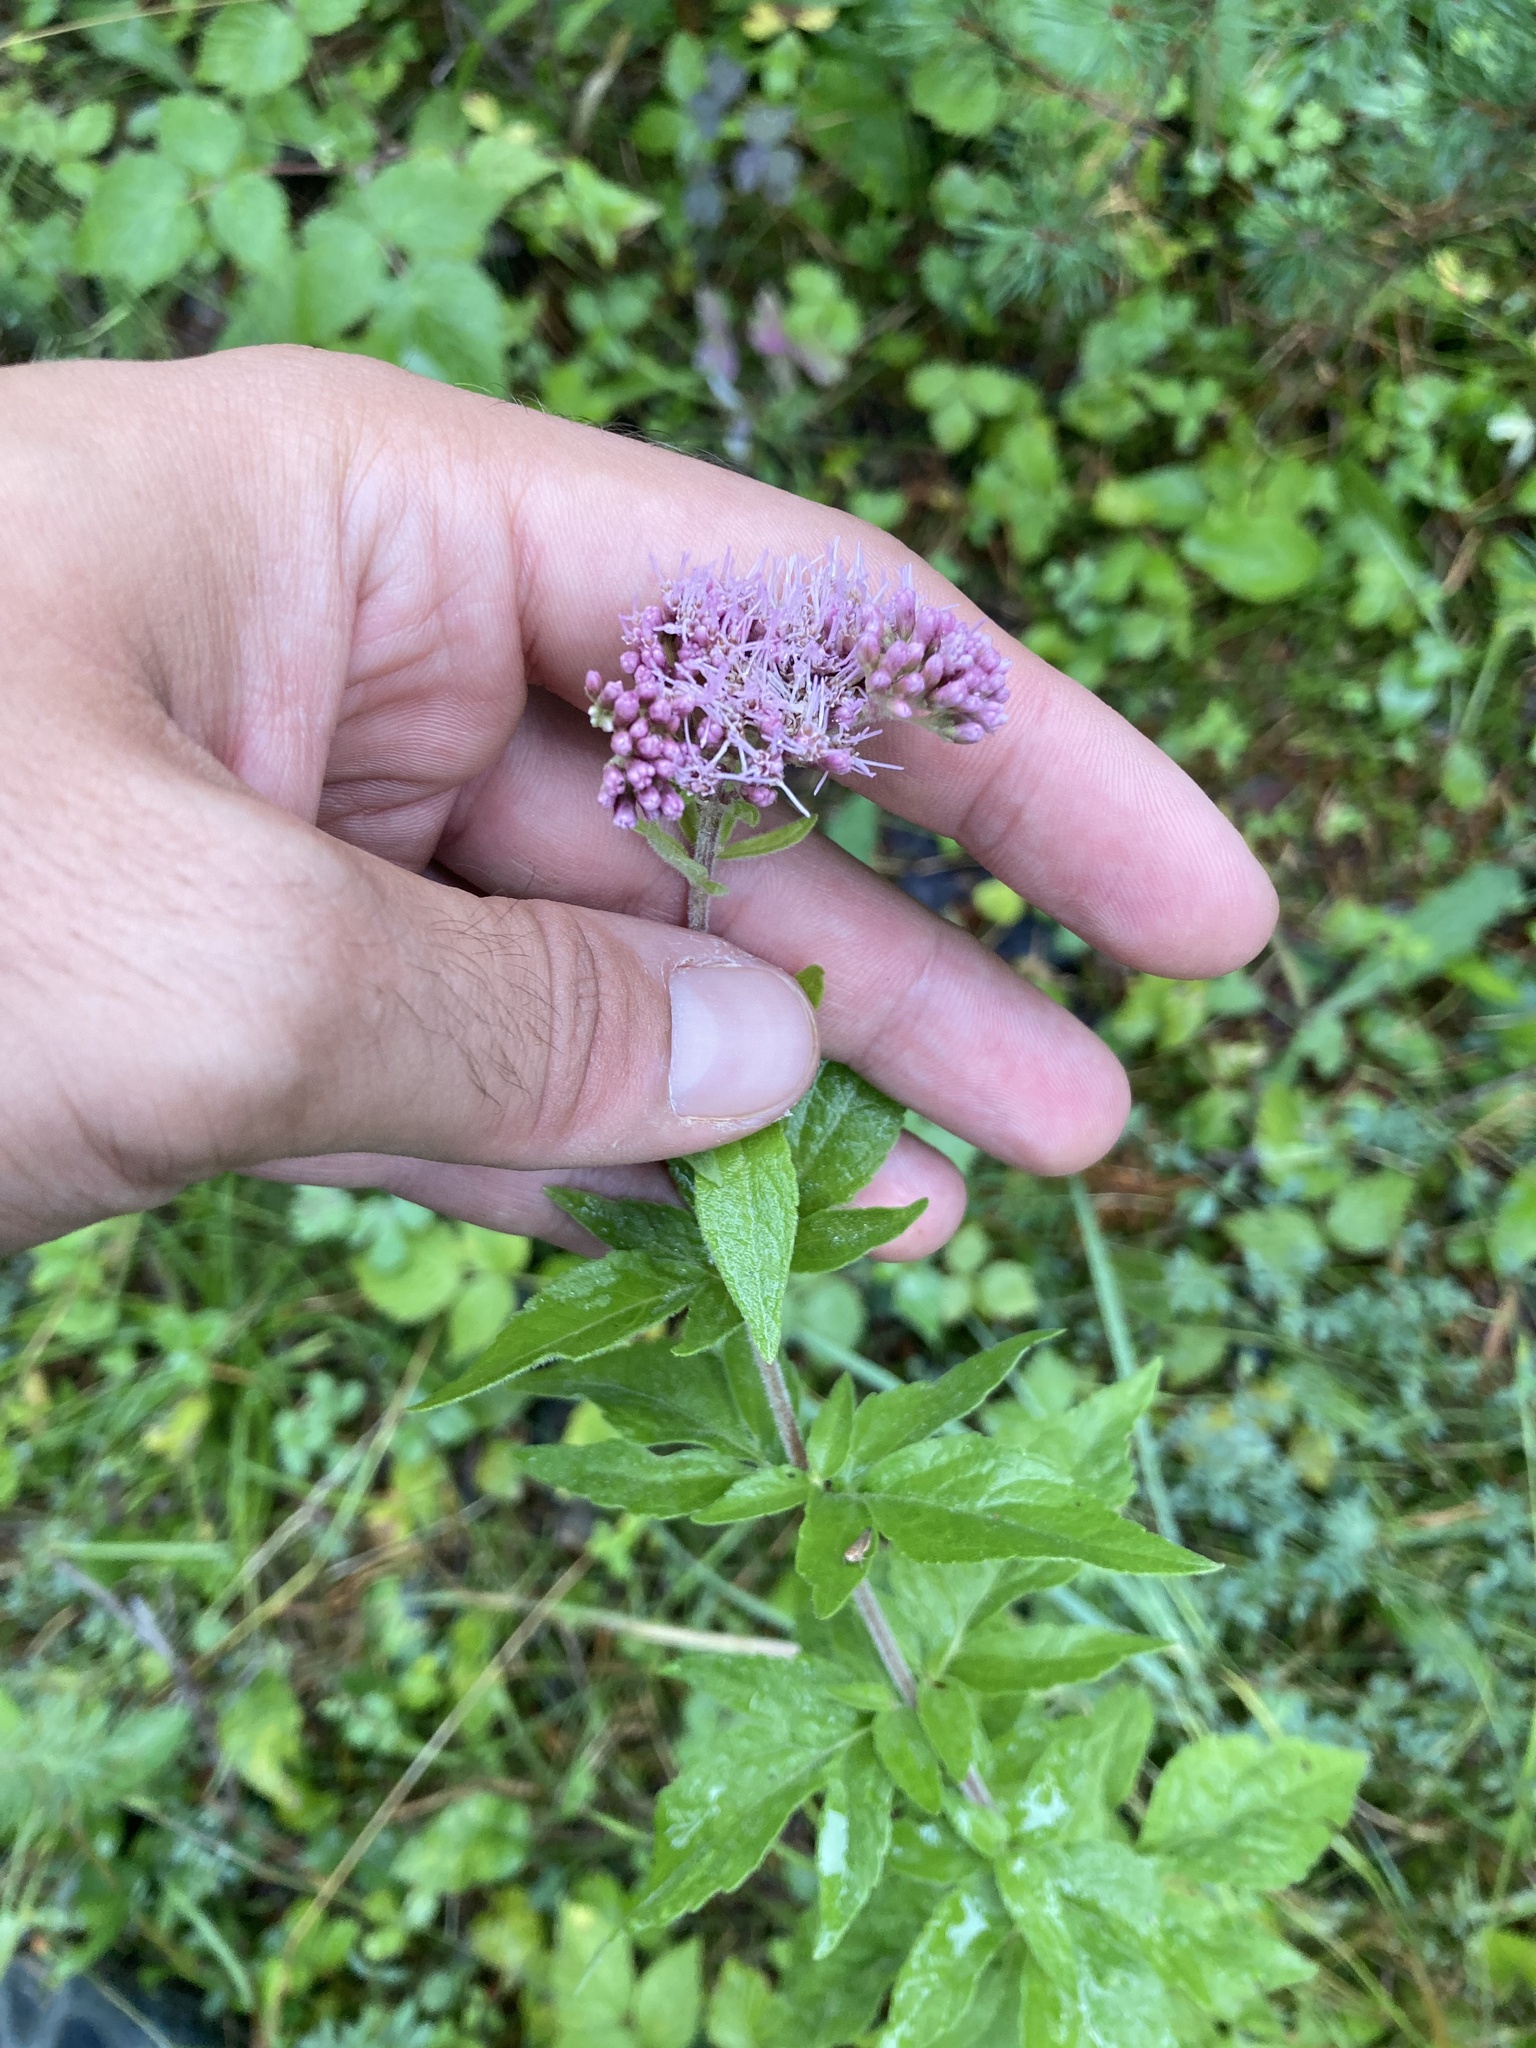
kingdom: Plantae
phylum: Tracheophyta
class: Magnoliopsida
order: Asterales
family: Asteraceae
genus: Eupatorium
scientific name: Eupatorium cannabinum
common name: Hemp-agrimony
